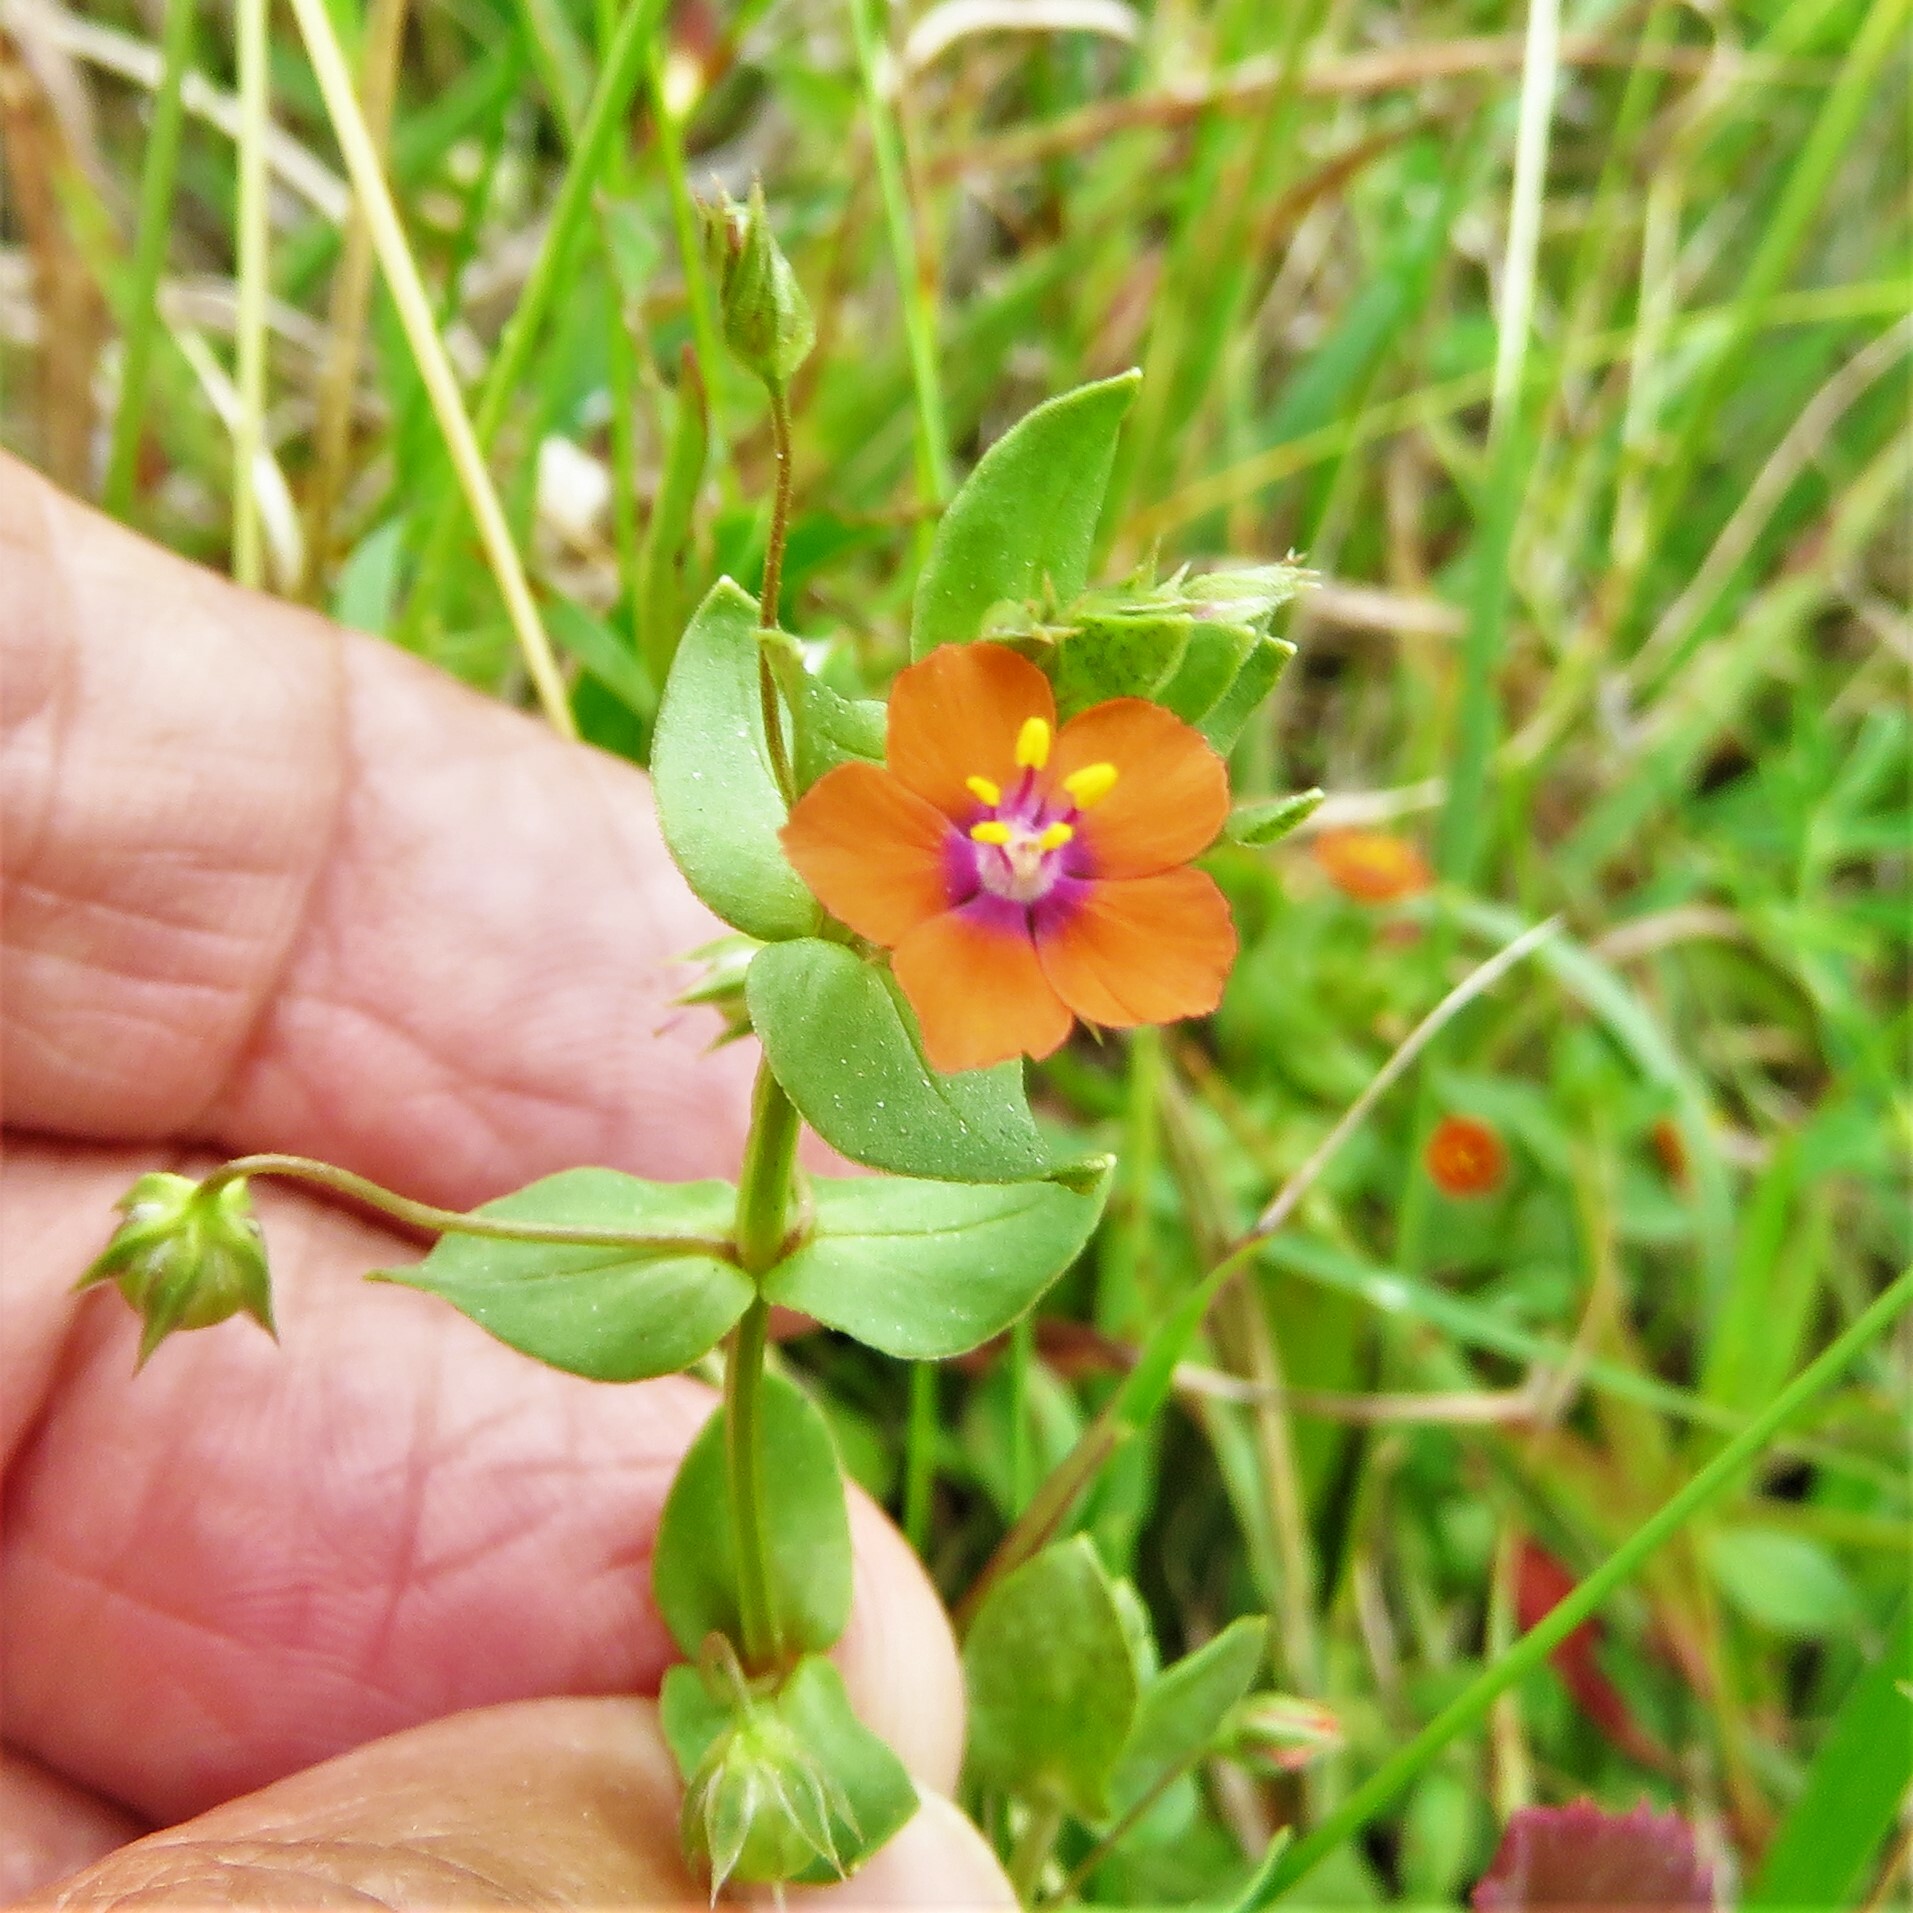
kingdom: Plantae
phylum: Tracheophyta
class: Magnoliopsida
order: Ericales
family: Primulaceae
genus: Lysimachia
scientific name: Lysimachia arvensis
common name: Scarlet pimpernel
